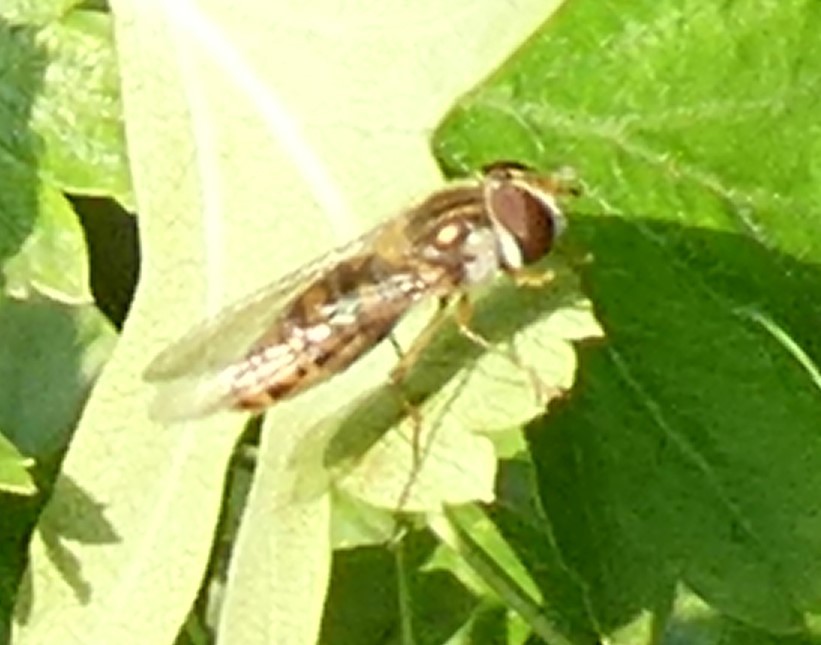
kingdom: Animalia
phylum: Arthropoda
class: Insecta
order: Diptera
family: Syrphidae
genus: Episyrphus
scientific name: Episyrphus balteatus
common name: Marmalade hoverfly
